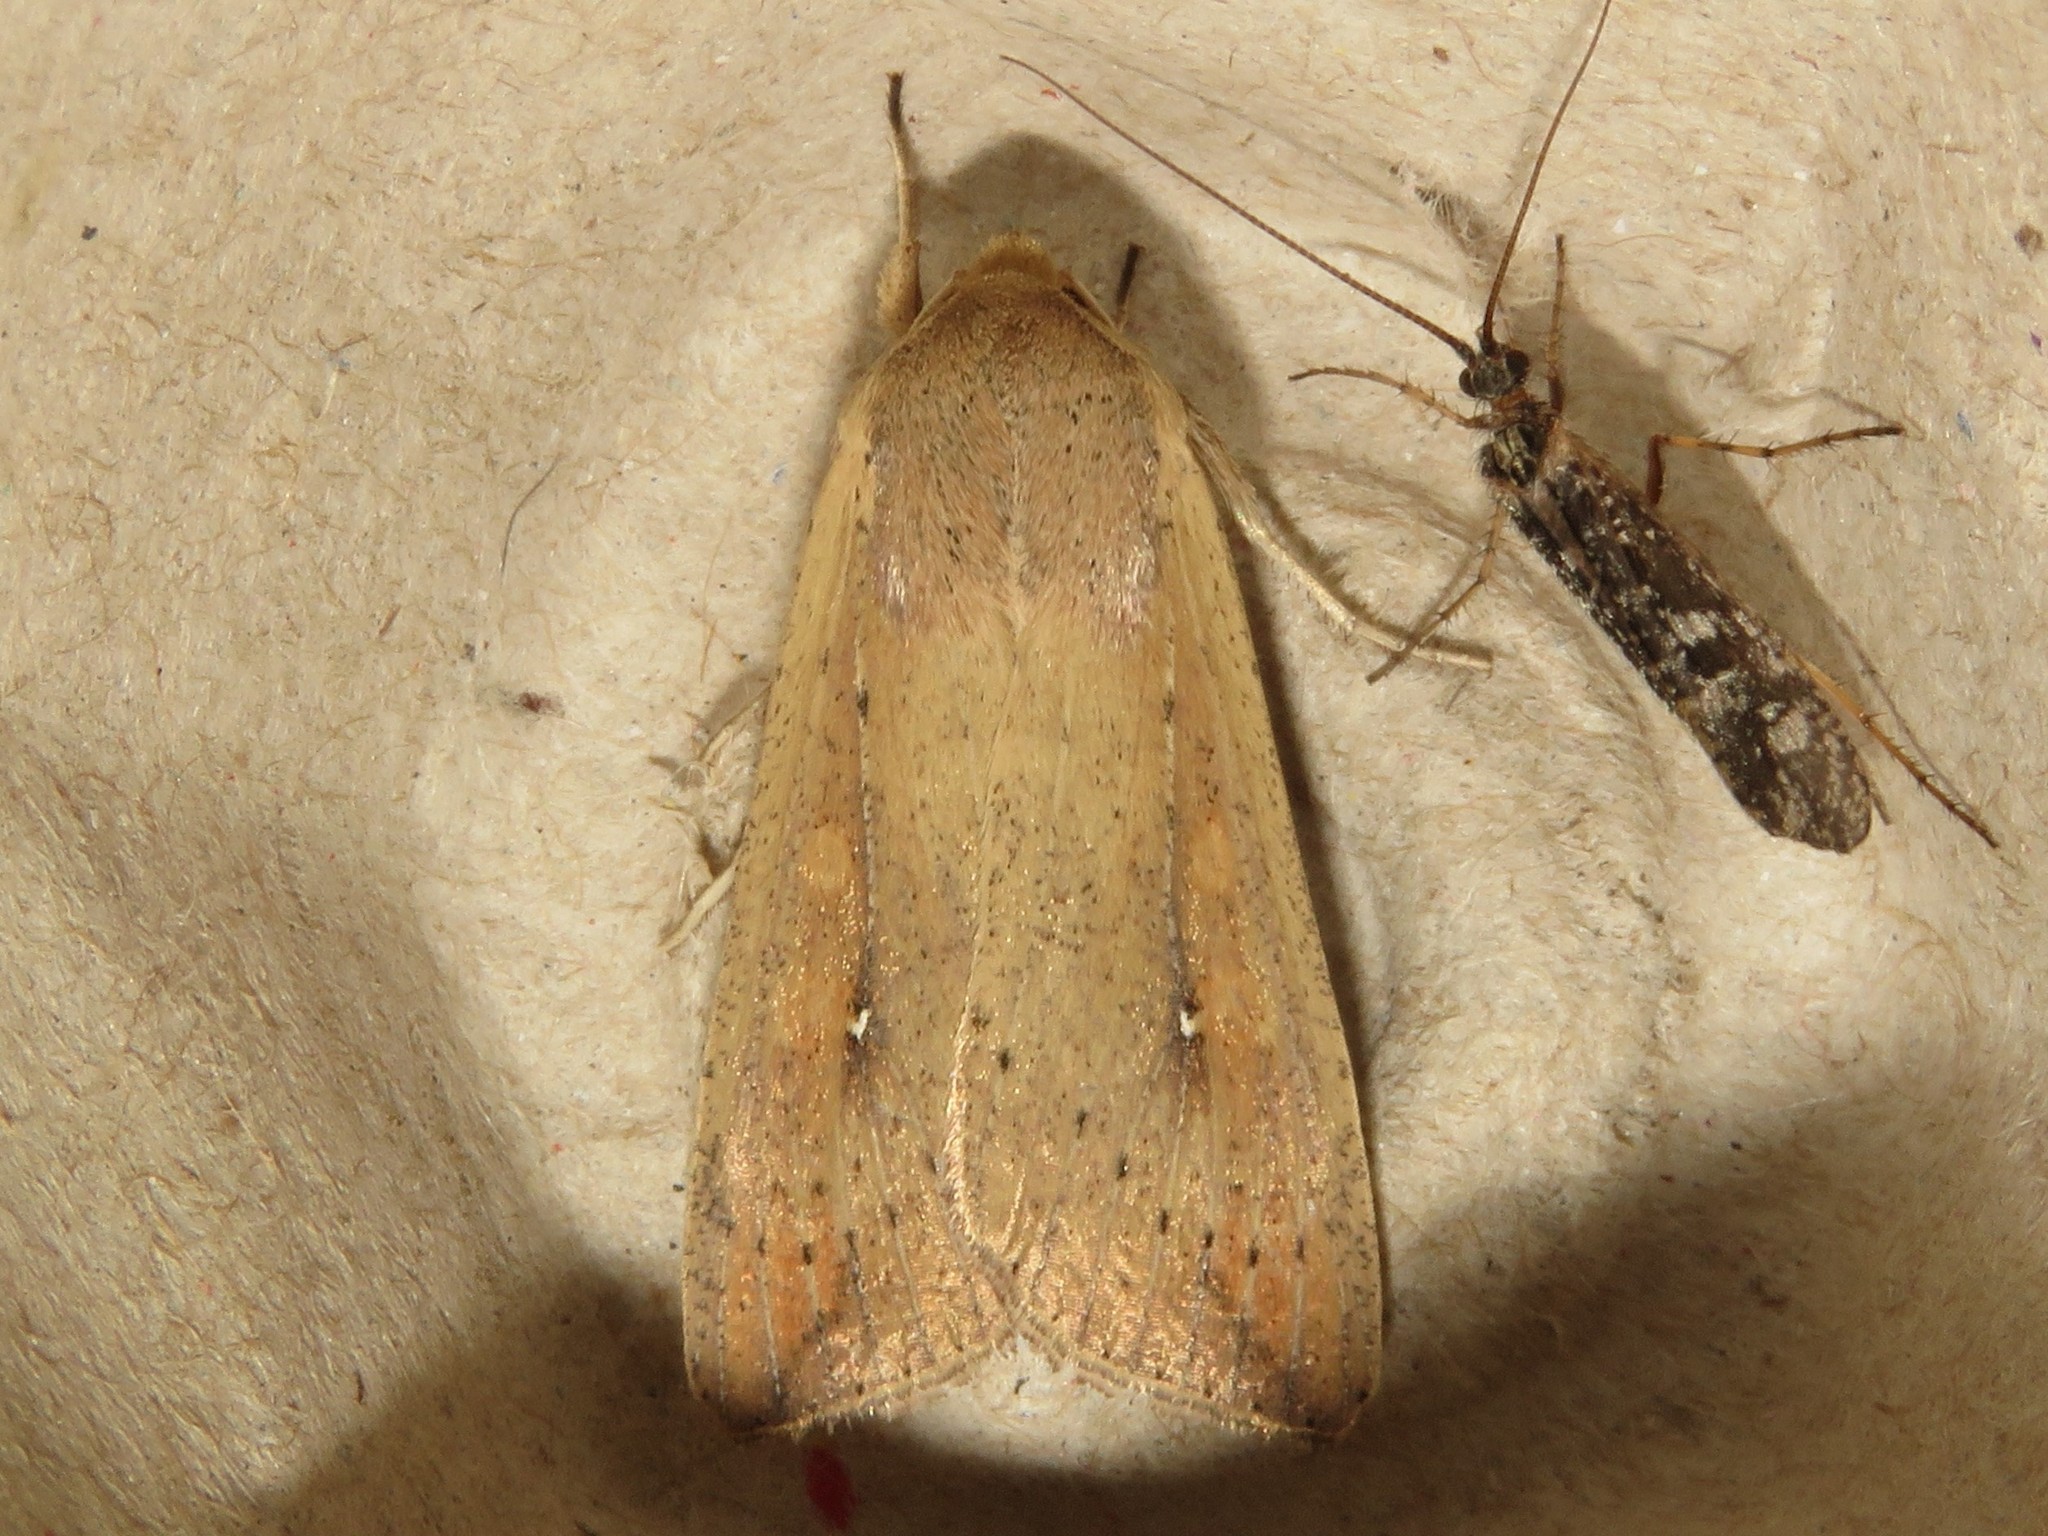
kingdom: Animalia
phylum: Arthropoda
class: Insecta
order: Lepidoptera
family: Noctuidae
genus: Mythimna
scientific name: Mythimna unipuncta
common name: White-speck
